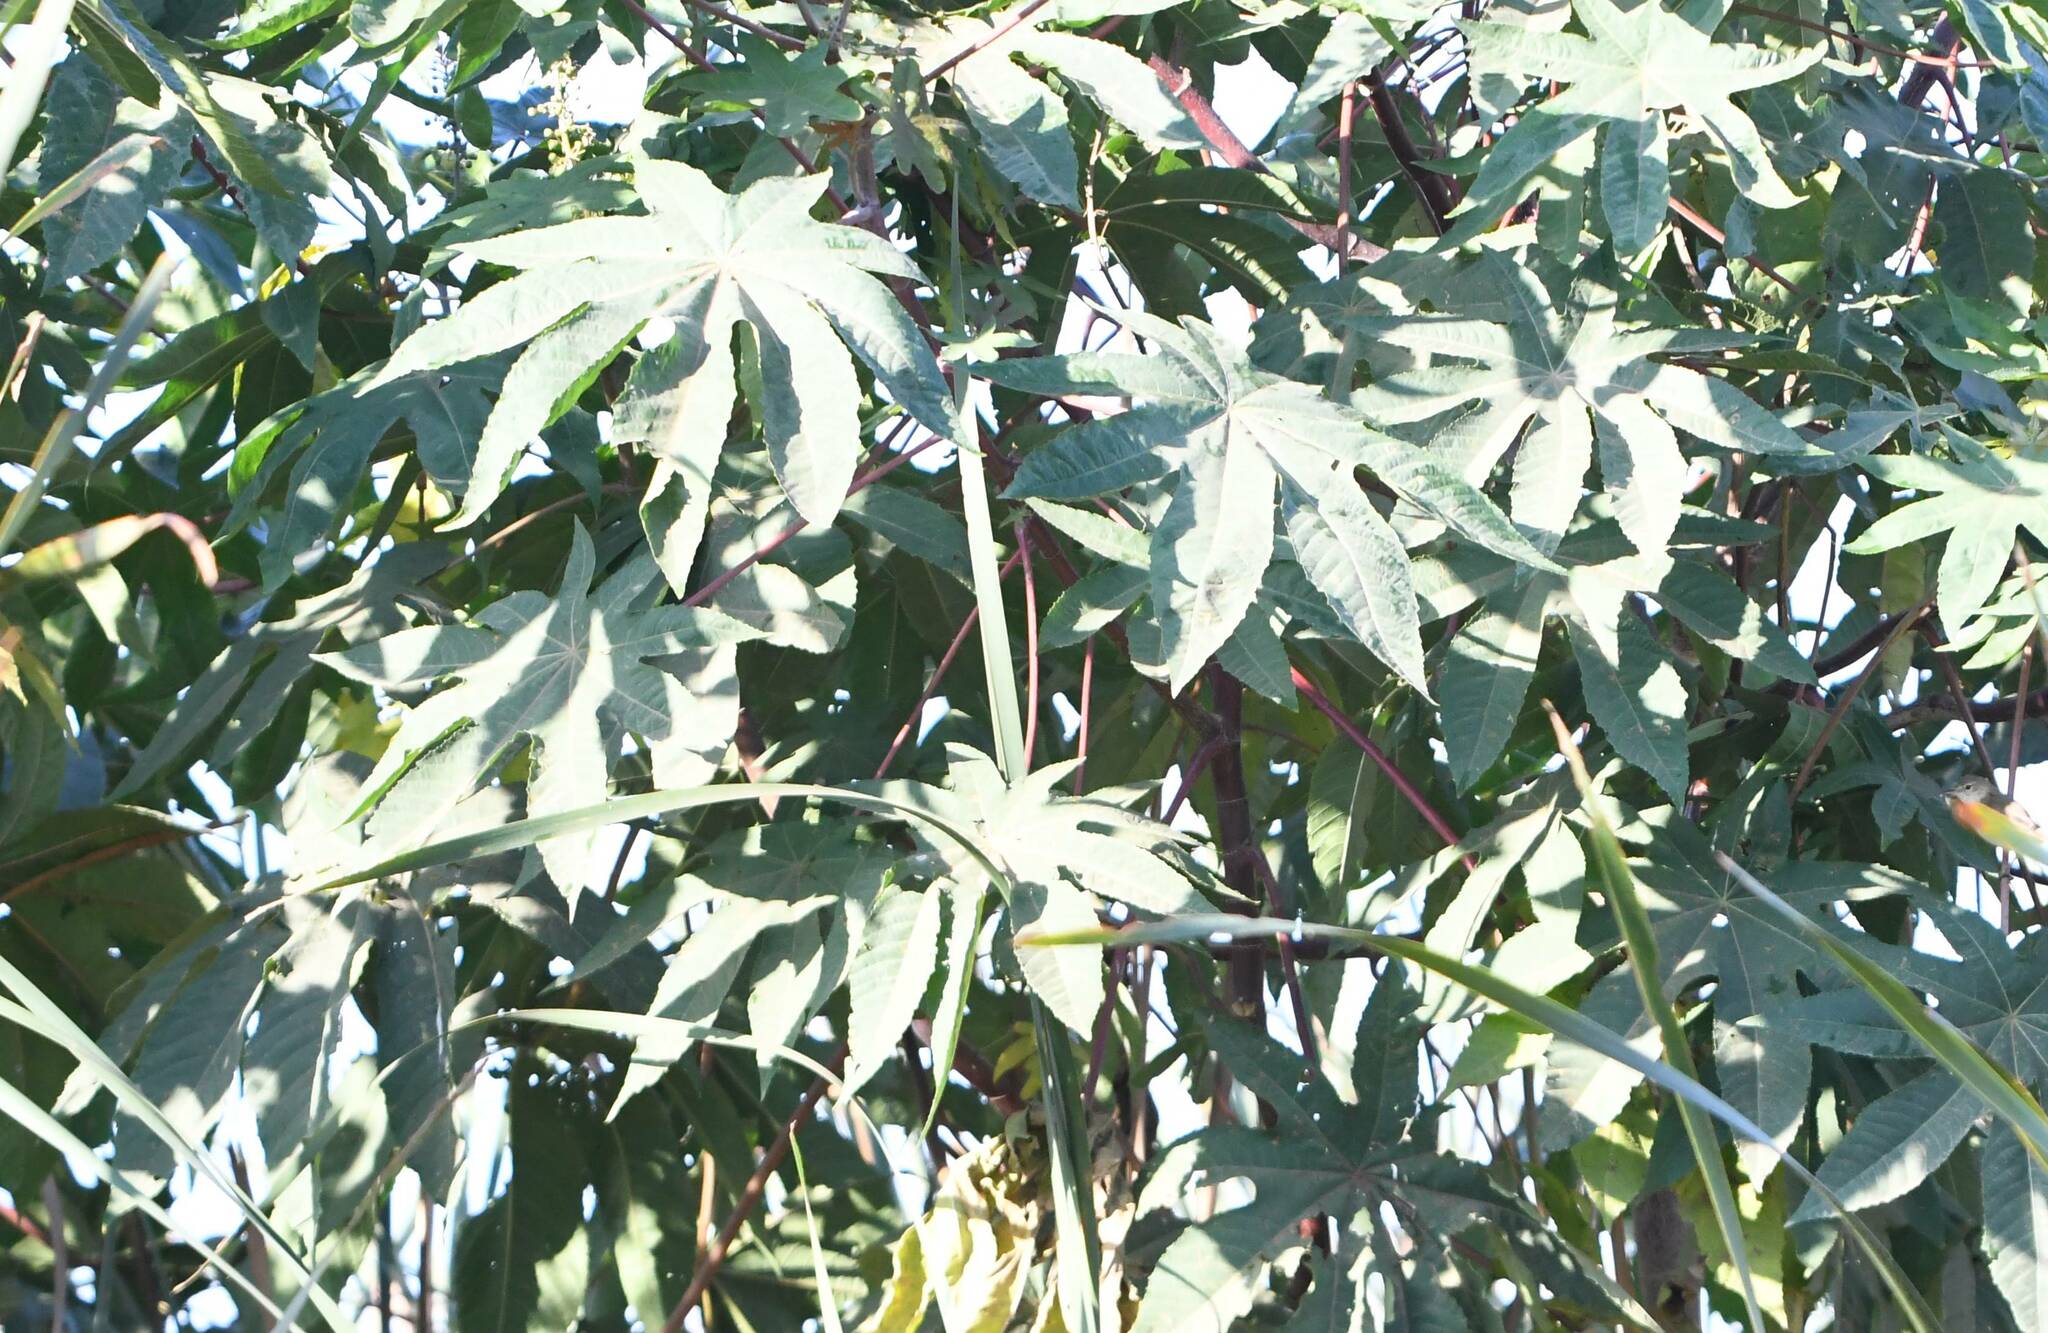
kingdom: Plantae
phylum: Tracheophyta
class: Magnoliopsida
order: Malpighiales
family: Euphorbiaceae
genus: Ricinus
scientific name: Ricinus communis
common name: Castor-oil-plant
